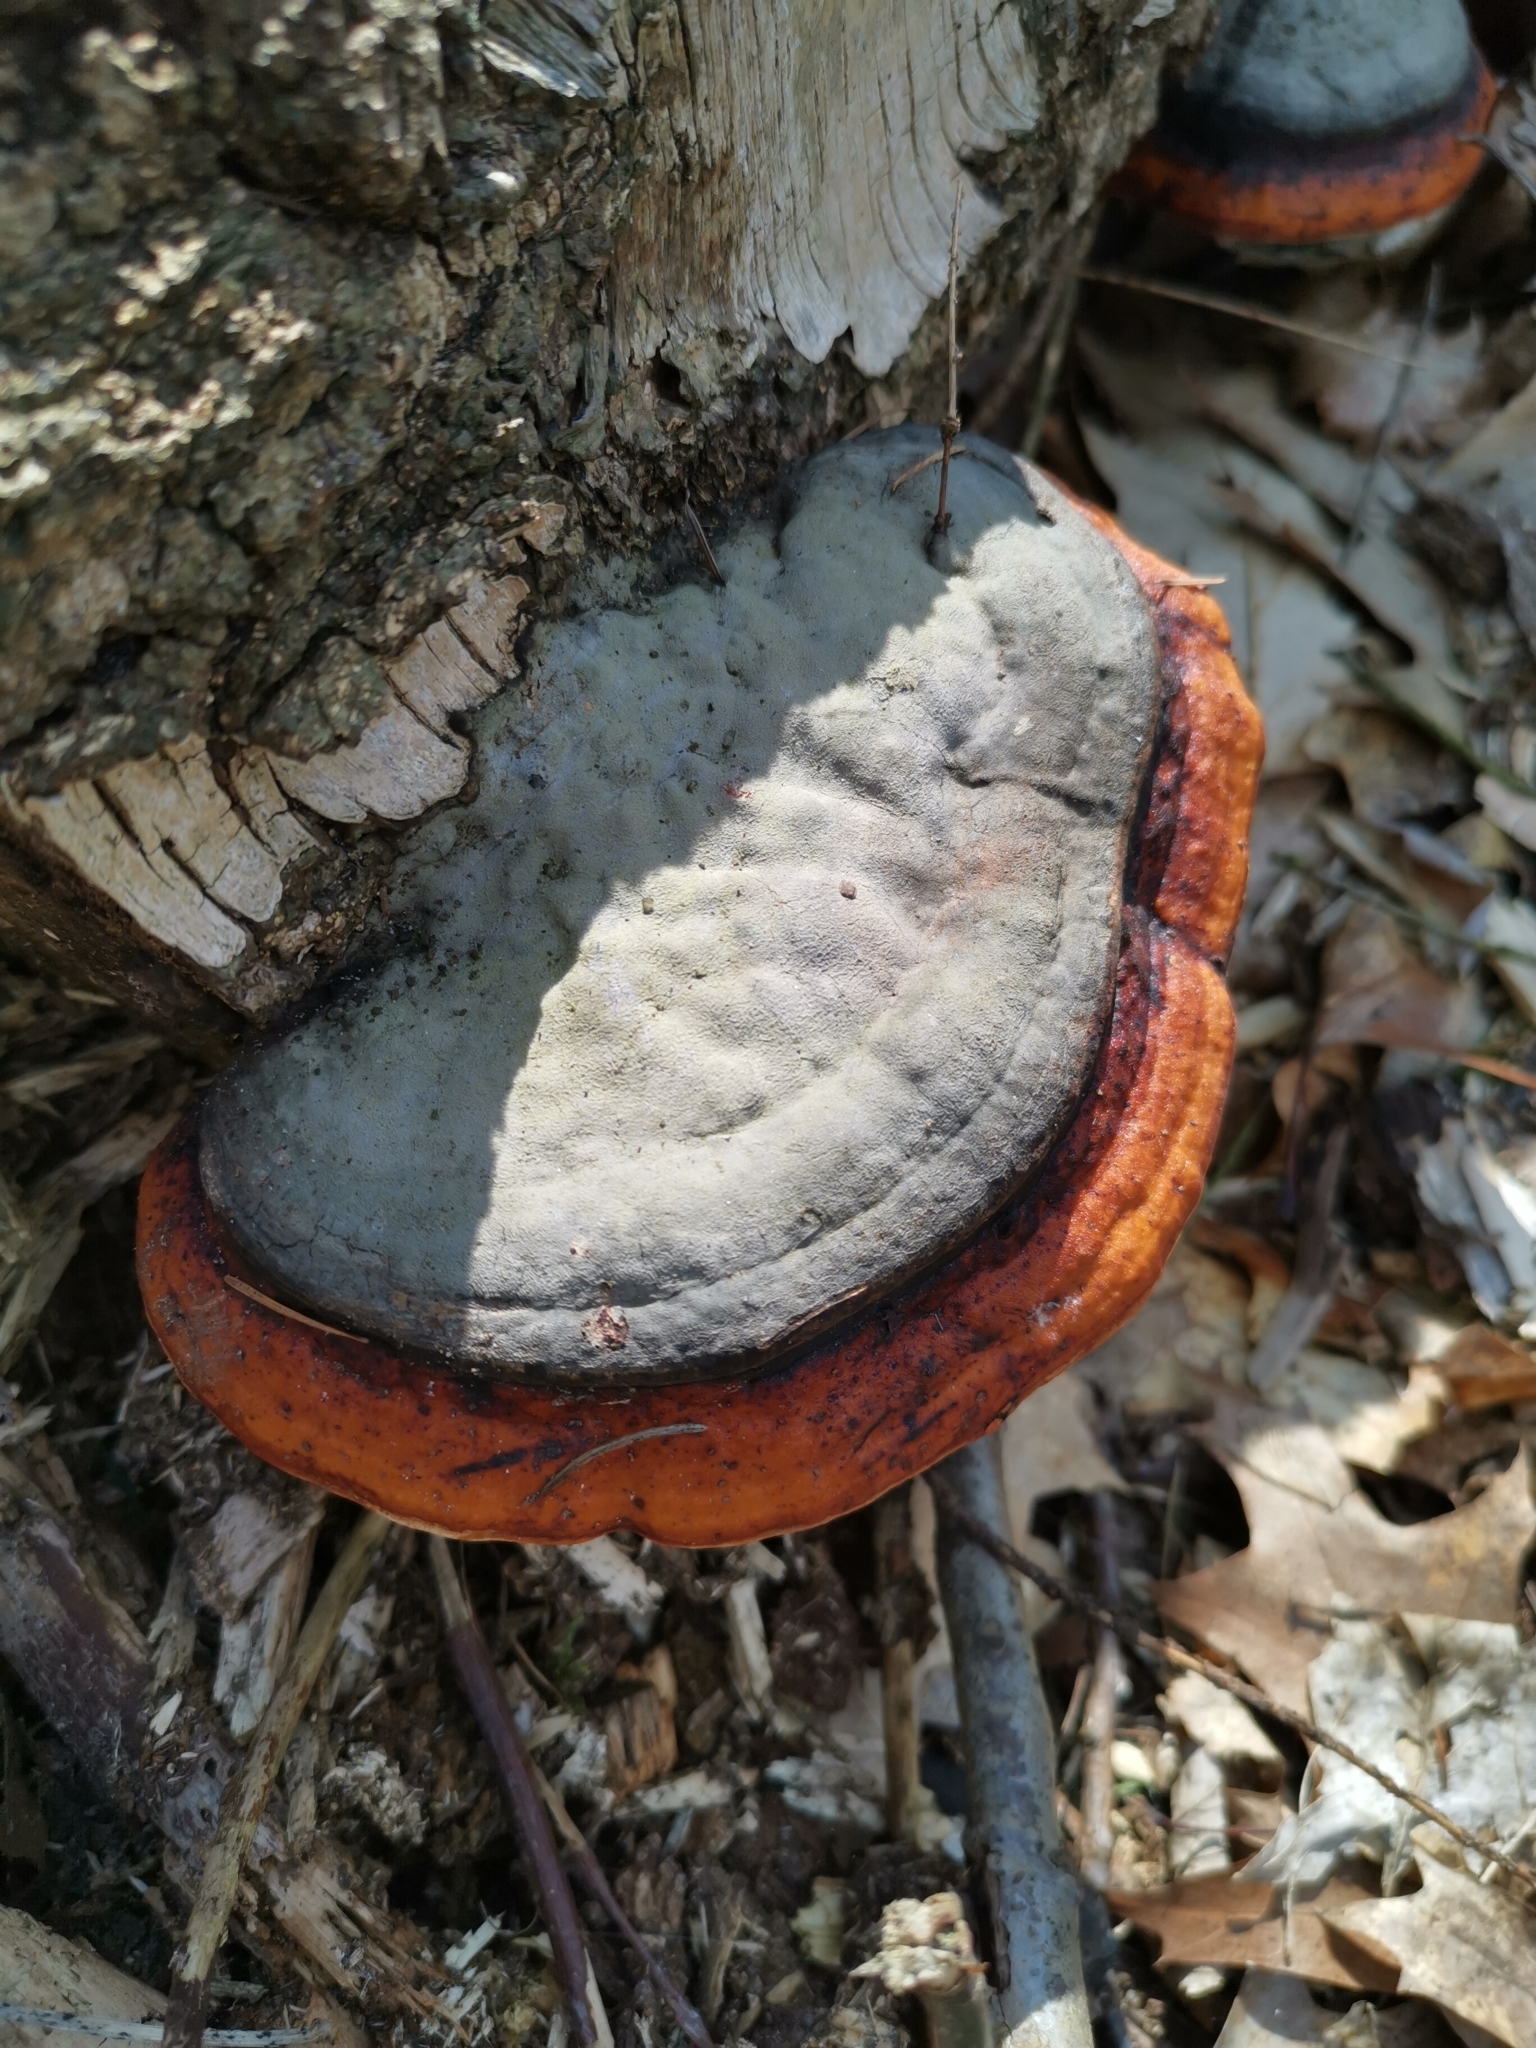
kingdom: Fungi
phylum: Basidiomycota
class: Agaricomycetes
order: Polyporales
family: Fomitopsidaceae
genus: Fomitopsis
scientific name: Fomitopsis pinicola
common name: Red-belted bracket
